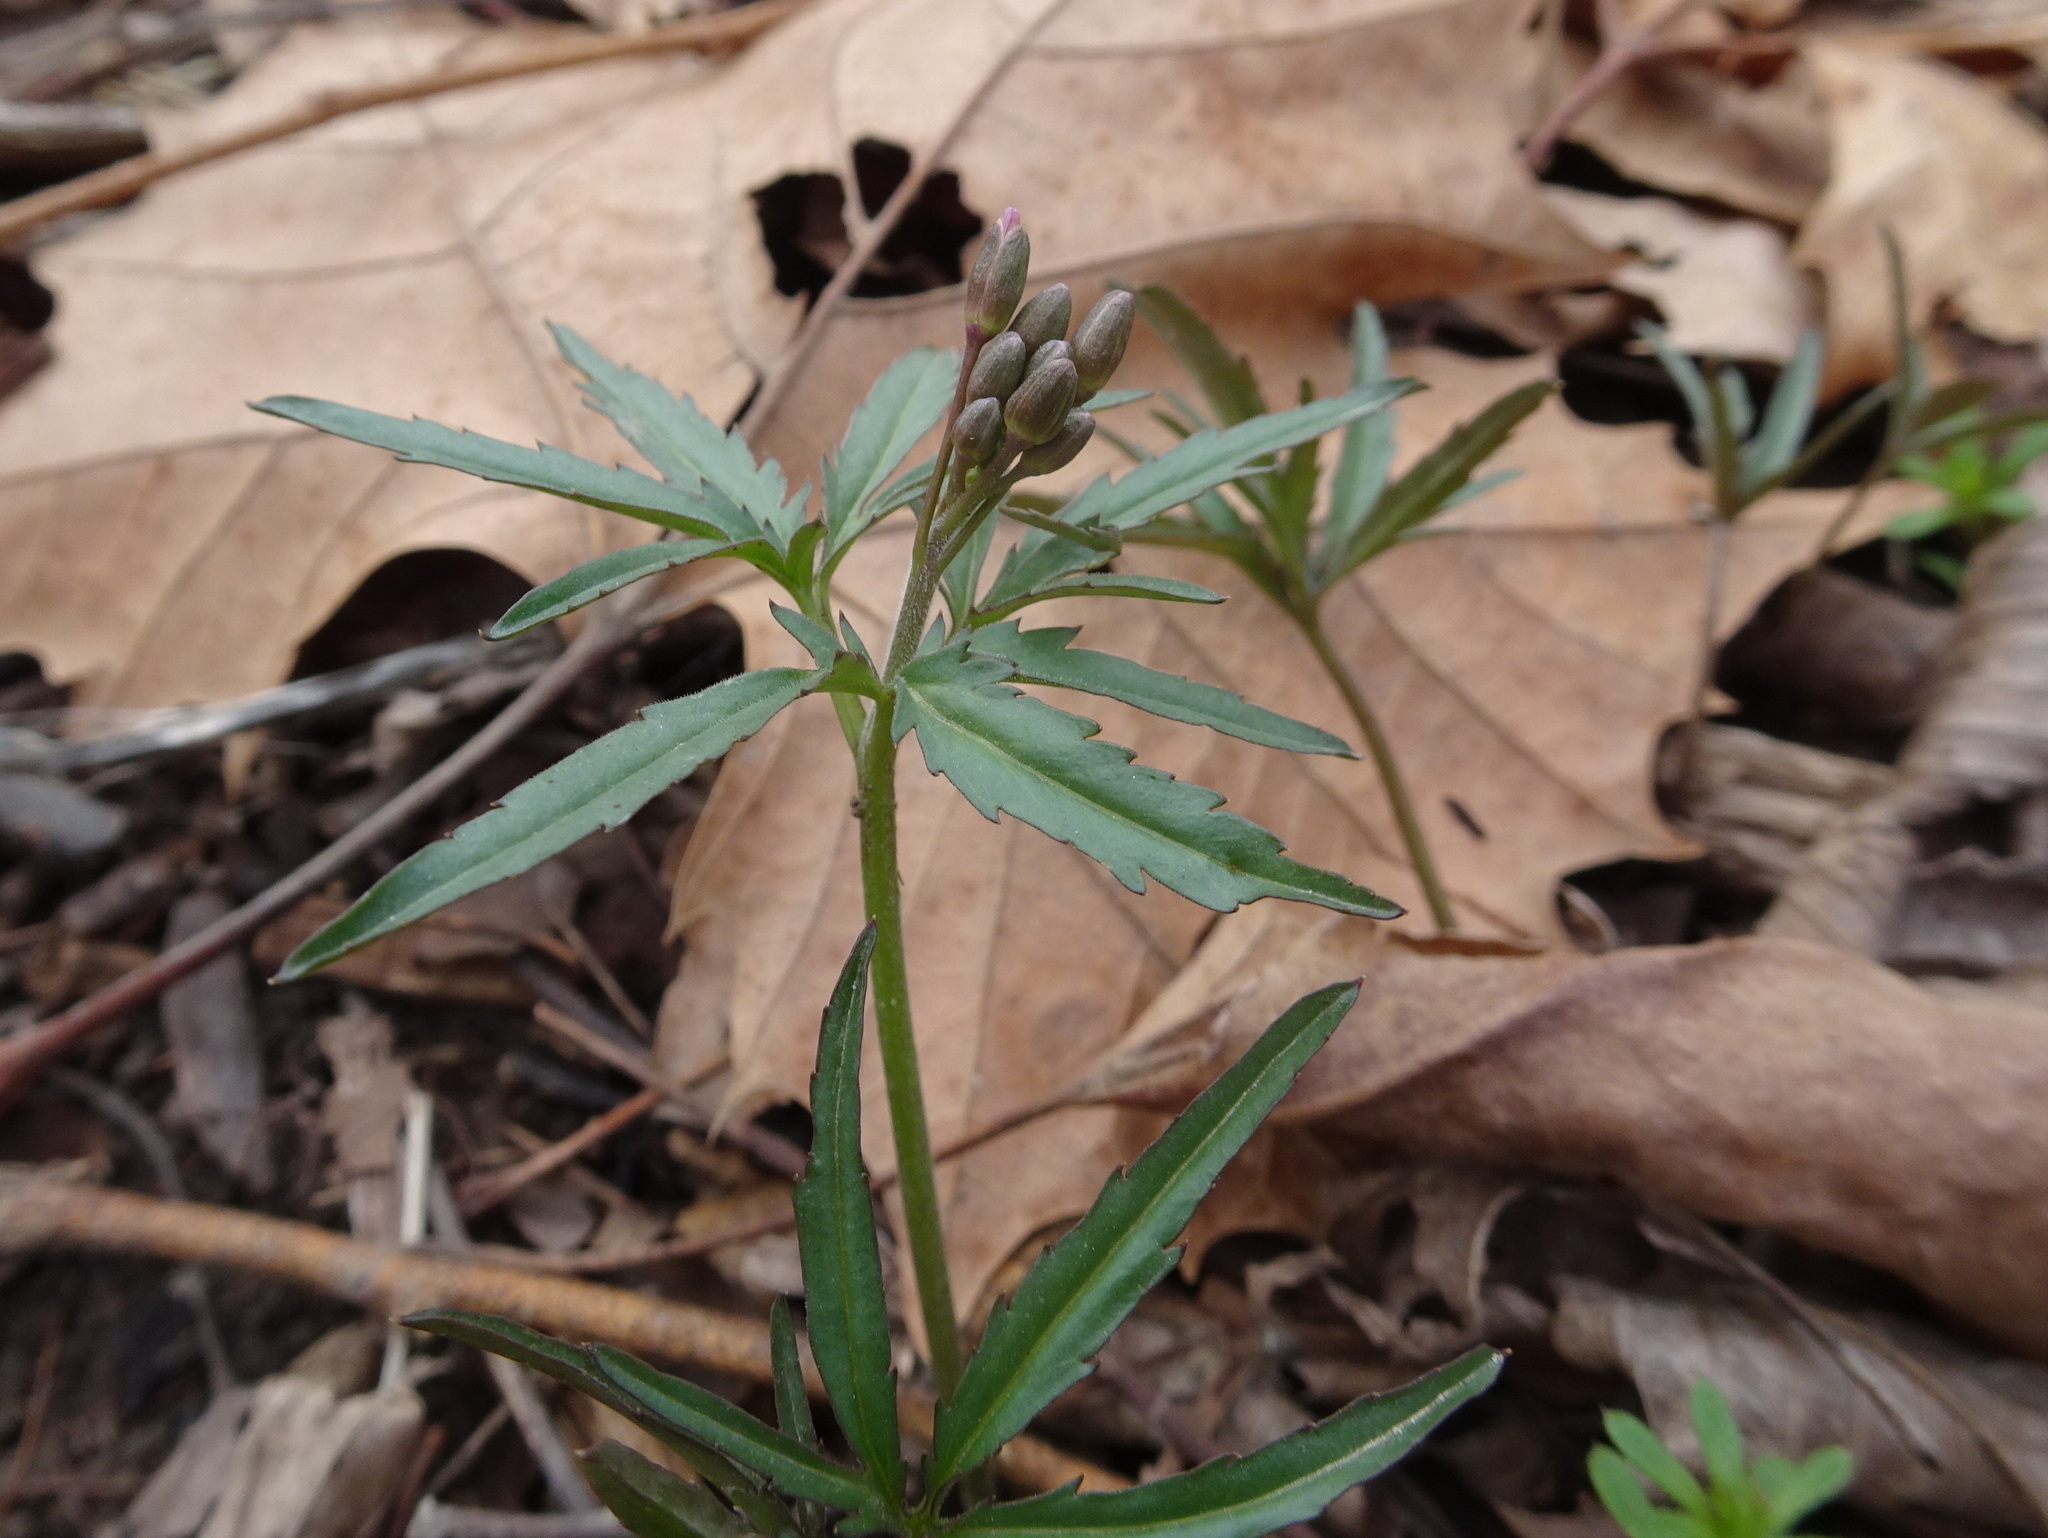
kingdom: Plantae
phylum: Tracheophyta
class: Magnoliopsida
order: Brassicales
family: Brassicaceae
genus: Cardamine
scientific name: Cardamine concatenata
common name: Cut-leaf toothcup
